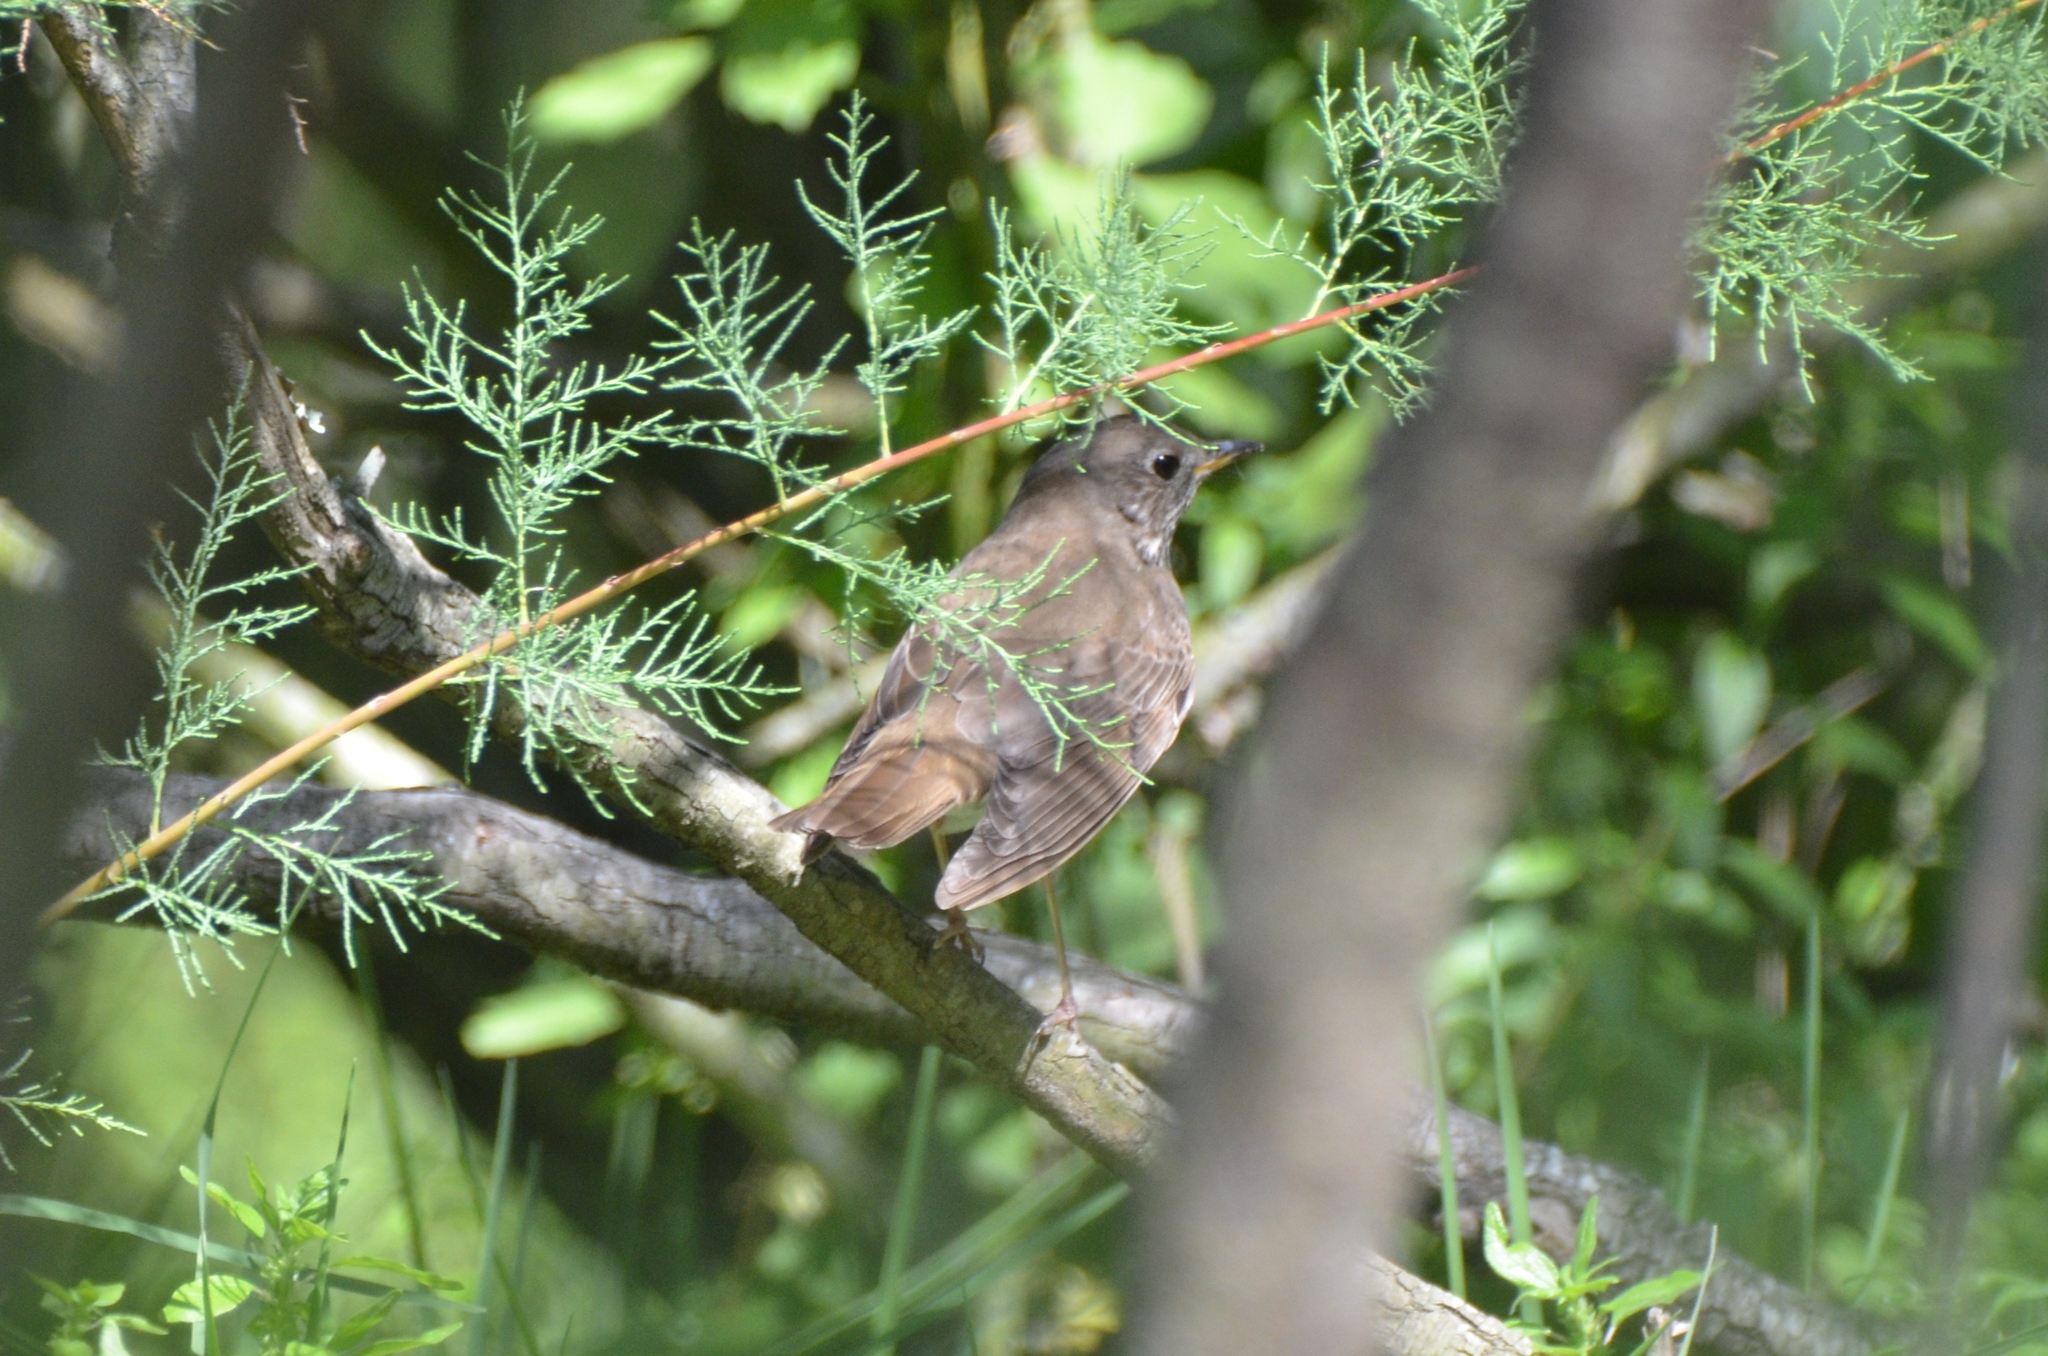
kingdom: Animalia
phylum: Chordata
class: Aves
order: Passeriformes
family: Turdidae
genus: Catharus
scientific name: Catharus minimus
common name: Grey-cheeked thrush
